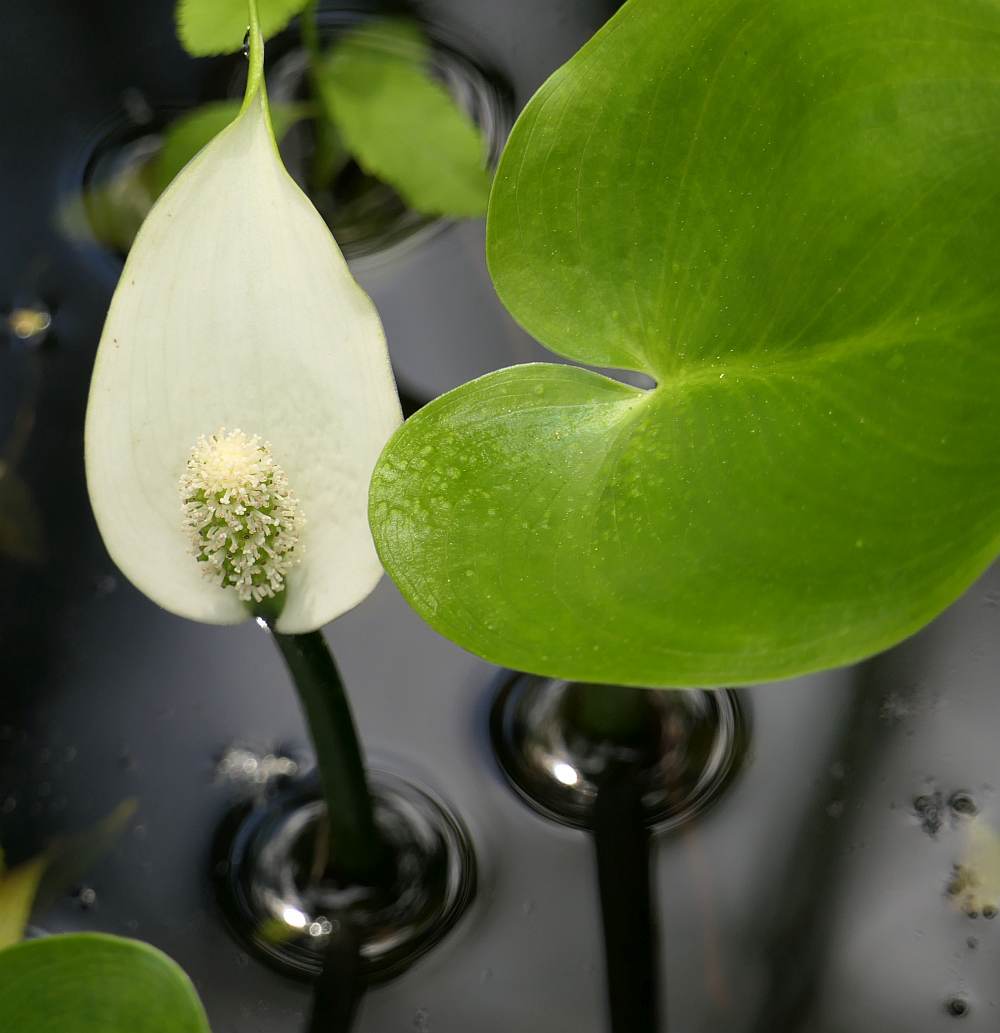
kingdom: Plantae
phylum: Tracheophyta
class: Liliopsida
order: Alismatales
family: Araceae
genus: Calla
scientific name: Calla palustris
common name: Bog arum
